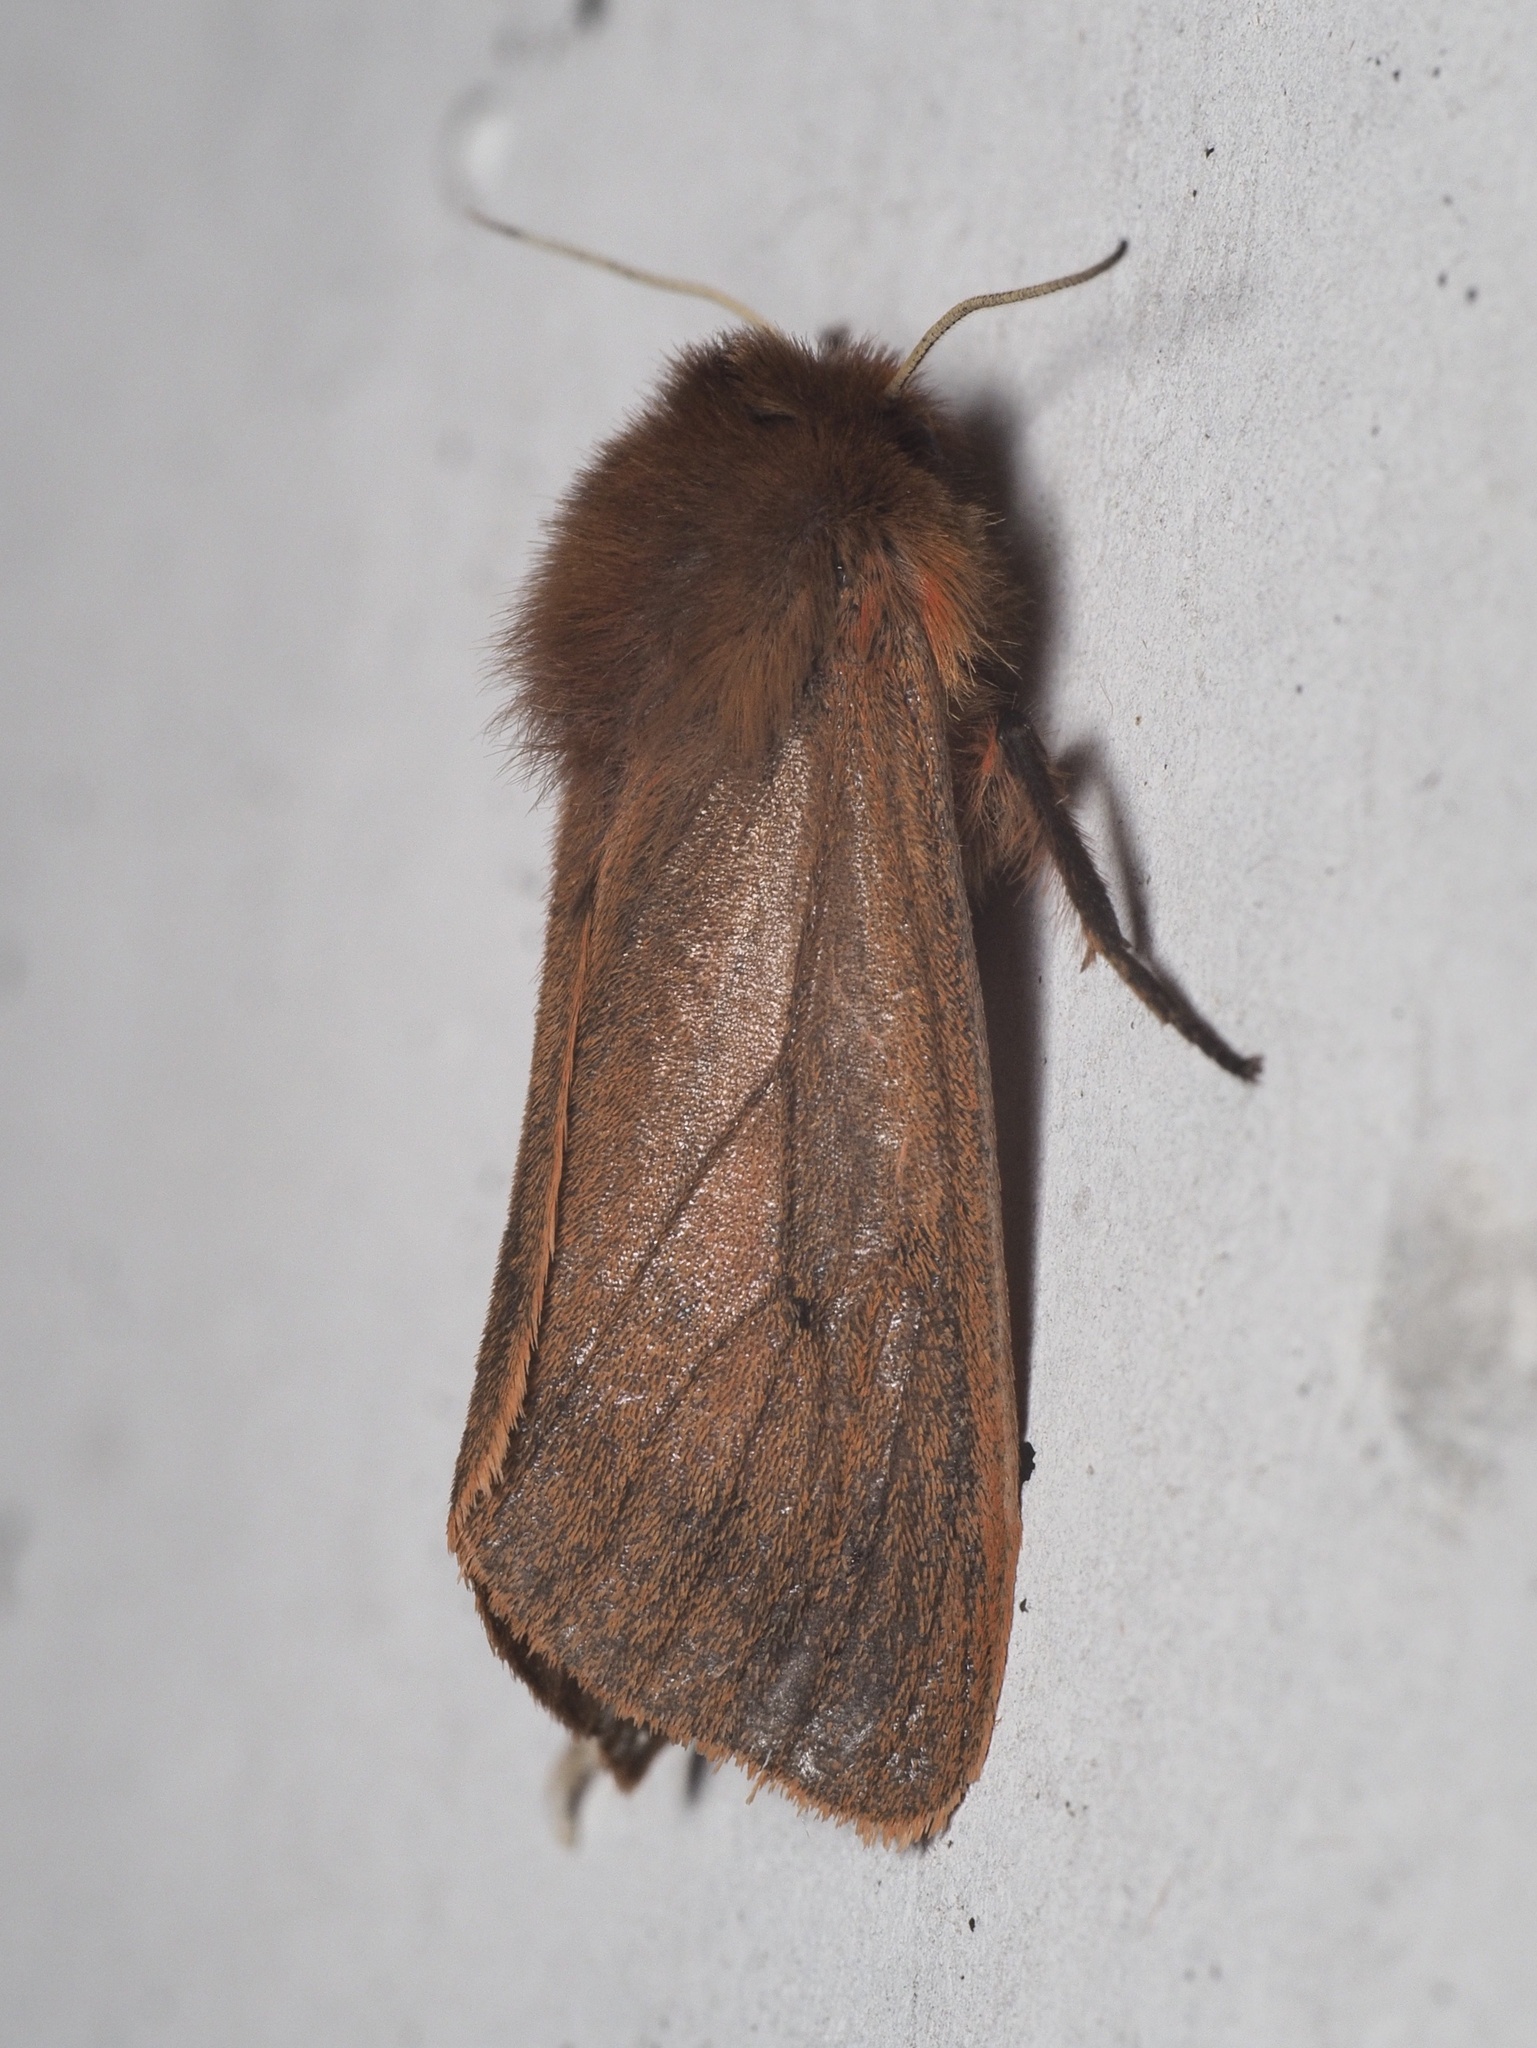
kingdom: Animalia
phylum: Arthropoda
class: Insecta
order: Lepidoptera
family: Erebidae
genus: Phragmatobia
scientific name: Phragmatobia fuliginosa
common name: Ruby tiger
